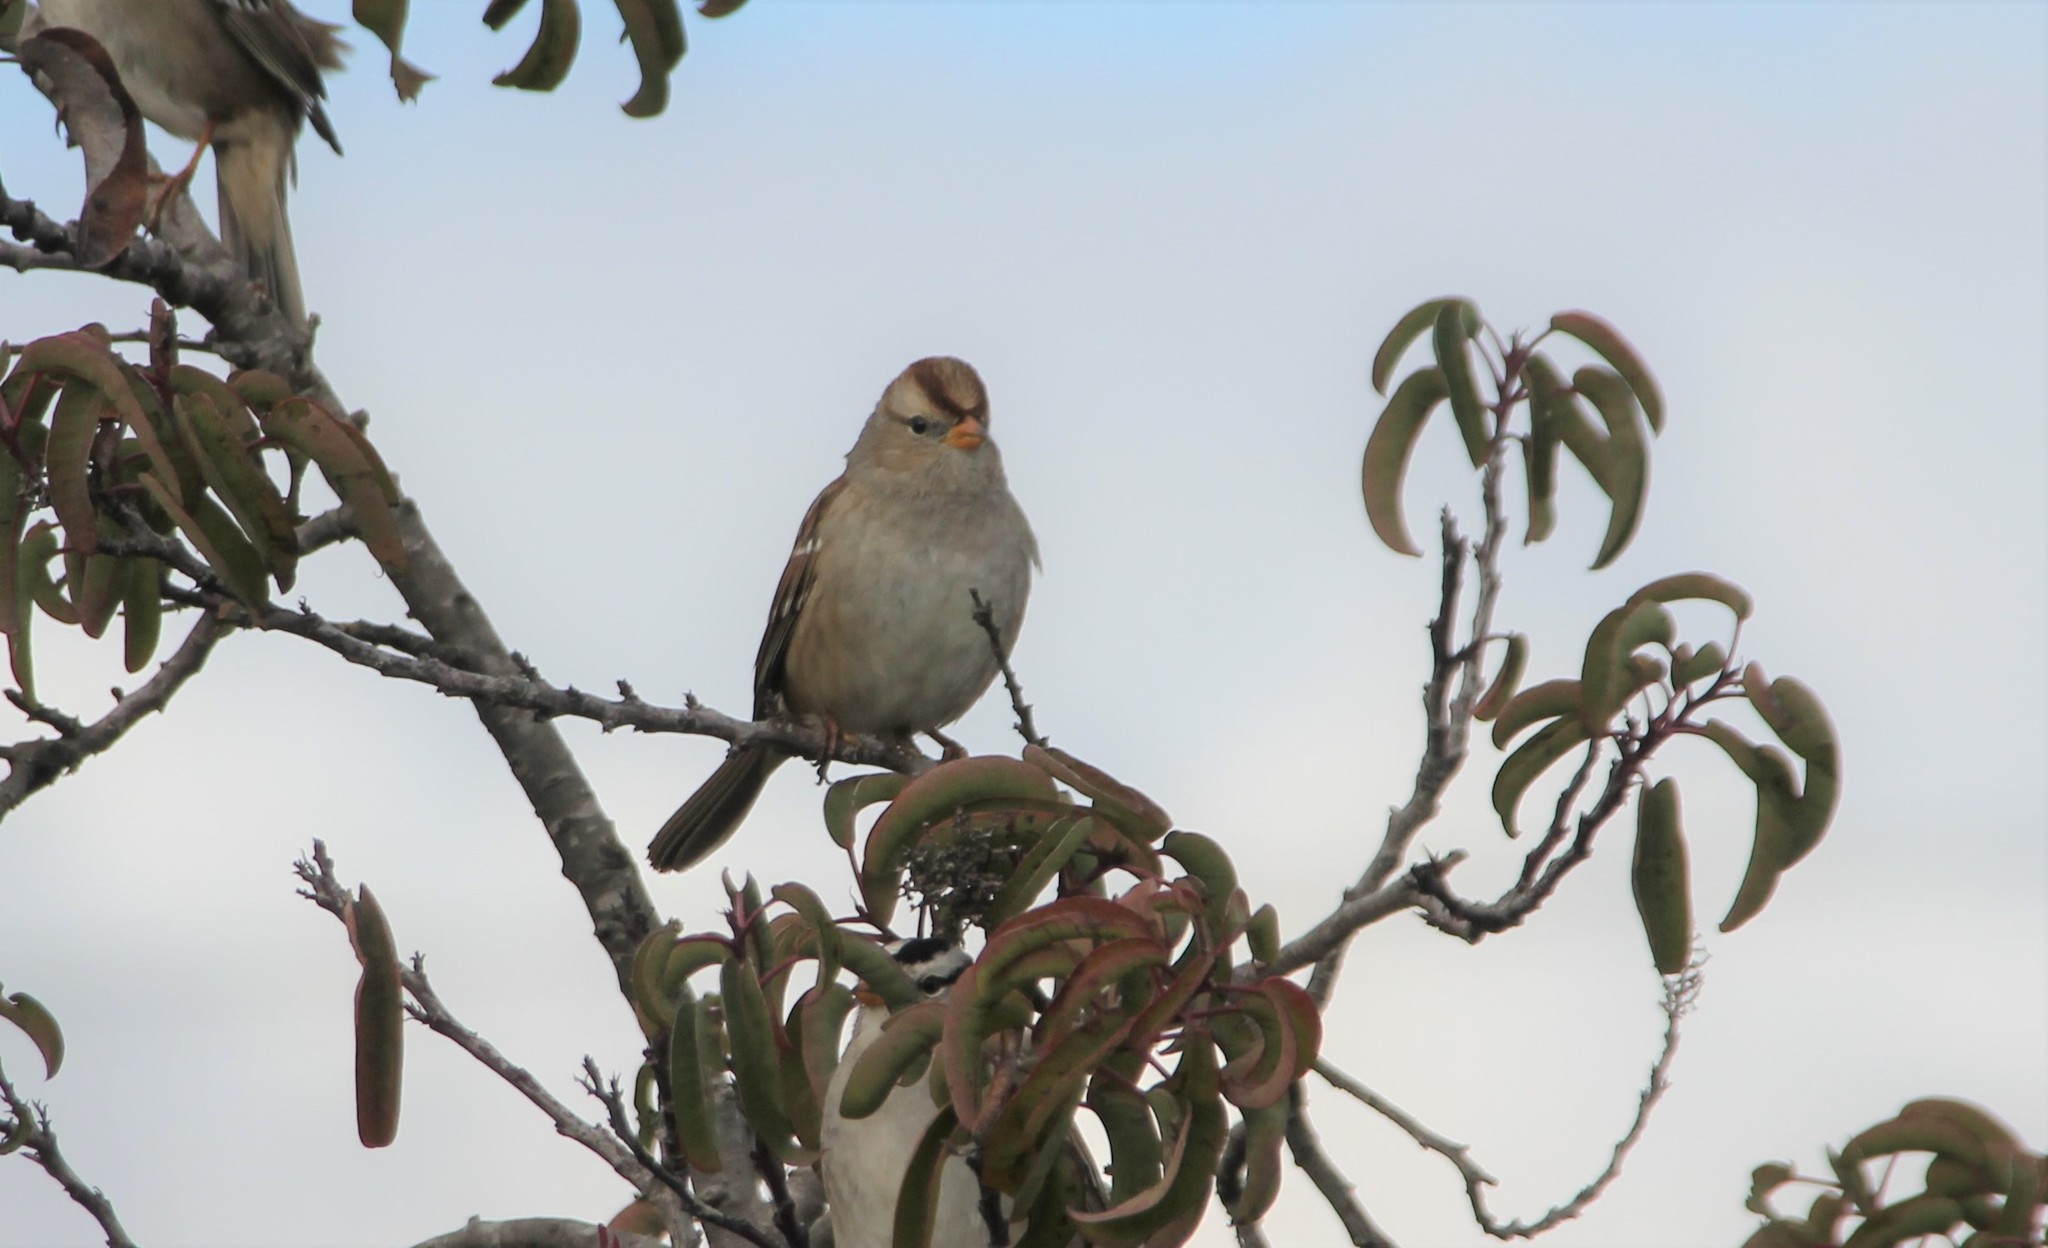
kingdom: Animalia
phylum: Chordata
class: Aves
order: Passeriformes
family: Passerellidae
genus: Zonotrichia
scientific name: Zonotrichia leucophrys
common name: White-crowned sparrow
